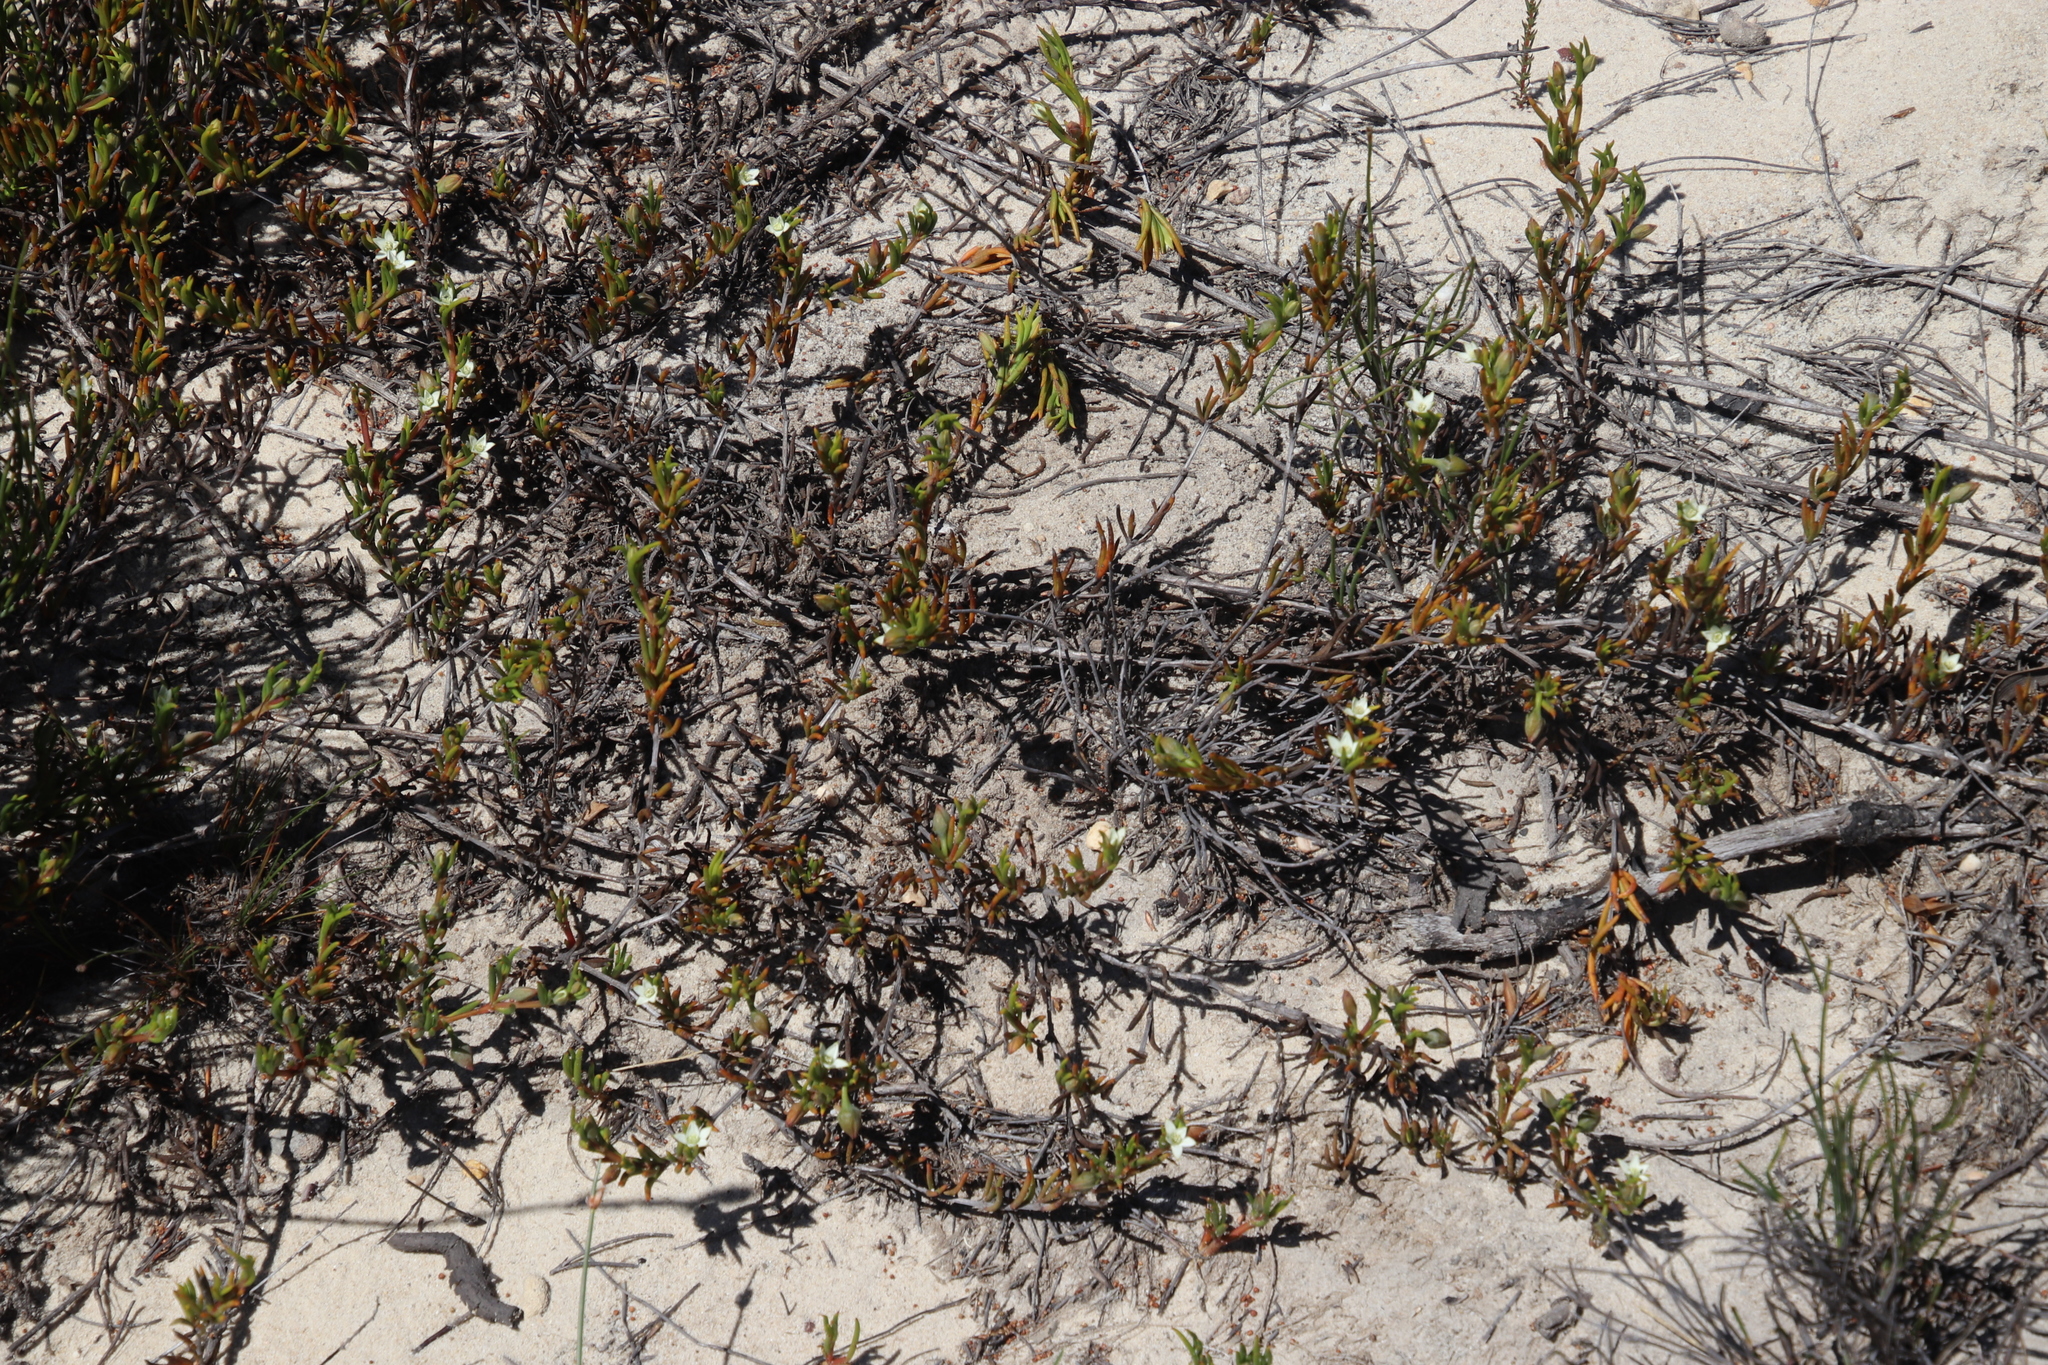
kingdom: Plantae
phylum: Tracheophyta
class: Magnoliopsida
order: Caryophyllales
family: Aizoaceae
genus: Acrosanthes
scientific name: Acrosanthes teretifolia
